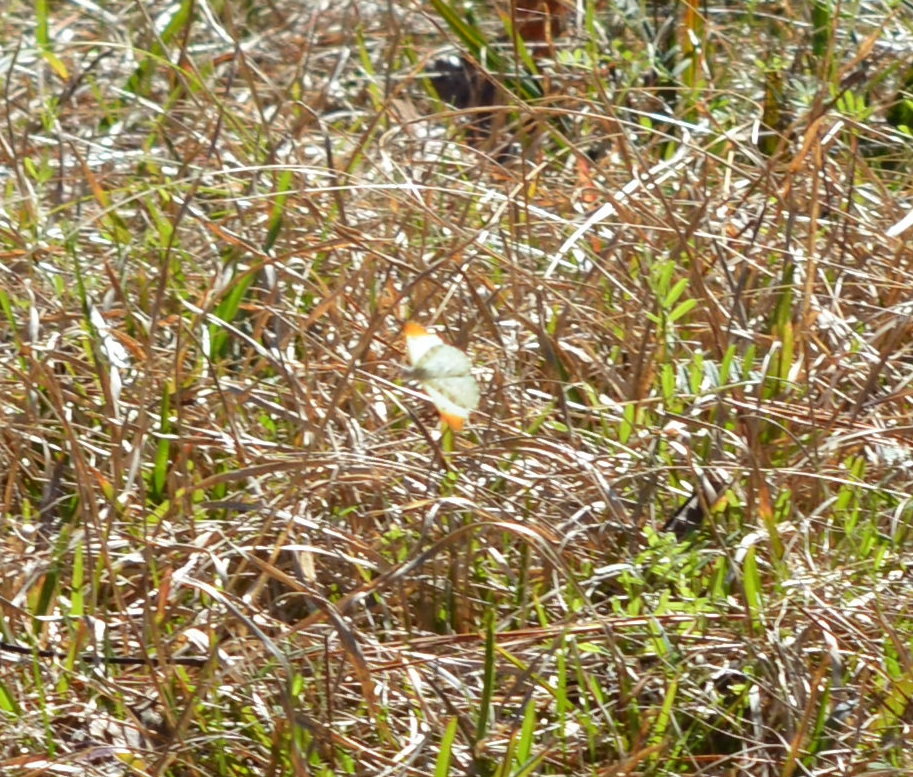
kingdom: Animalia
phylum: Arthropoda
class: Insecta
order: Lepidoptera
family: Pieridae
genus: Anthocharis
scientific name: Anthocharis midea
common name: Falcate orangetip
